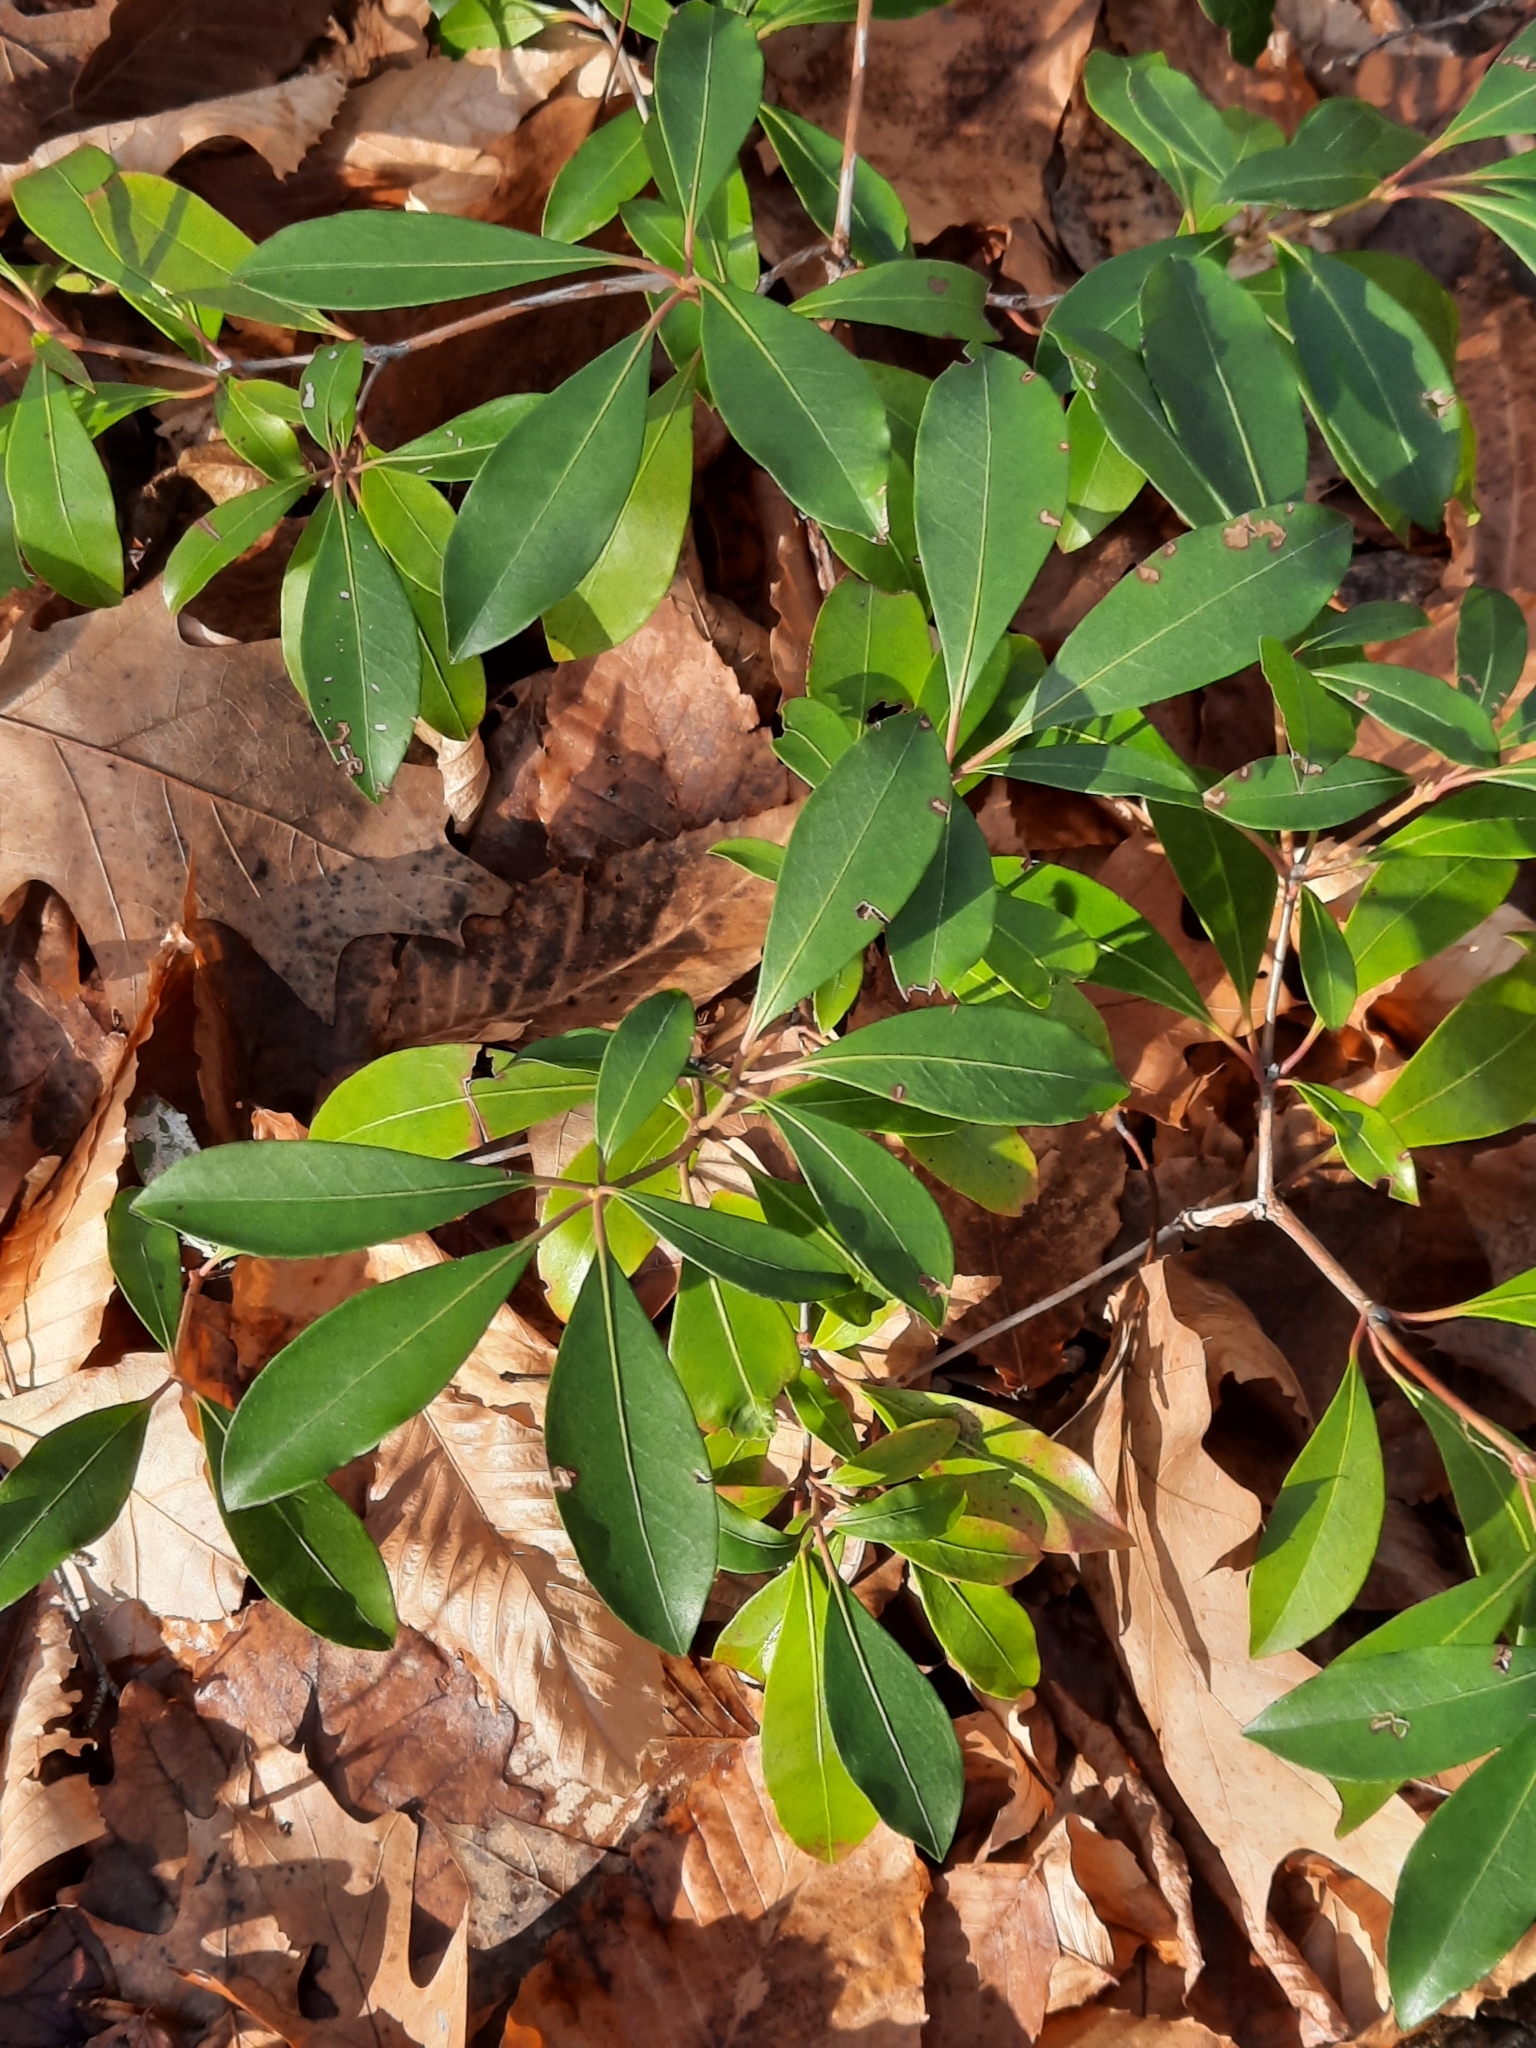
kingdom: Plantae
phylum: Tracheophyta
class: Magnoliopsida
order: Ericales
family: Ericaceae
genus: Kalmia
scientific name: Kalmia latifolia
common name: Mountain-laurel
